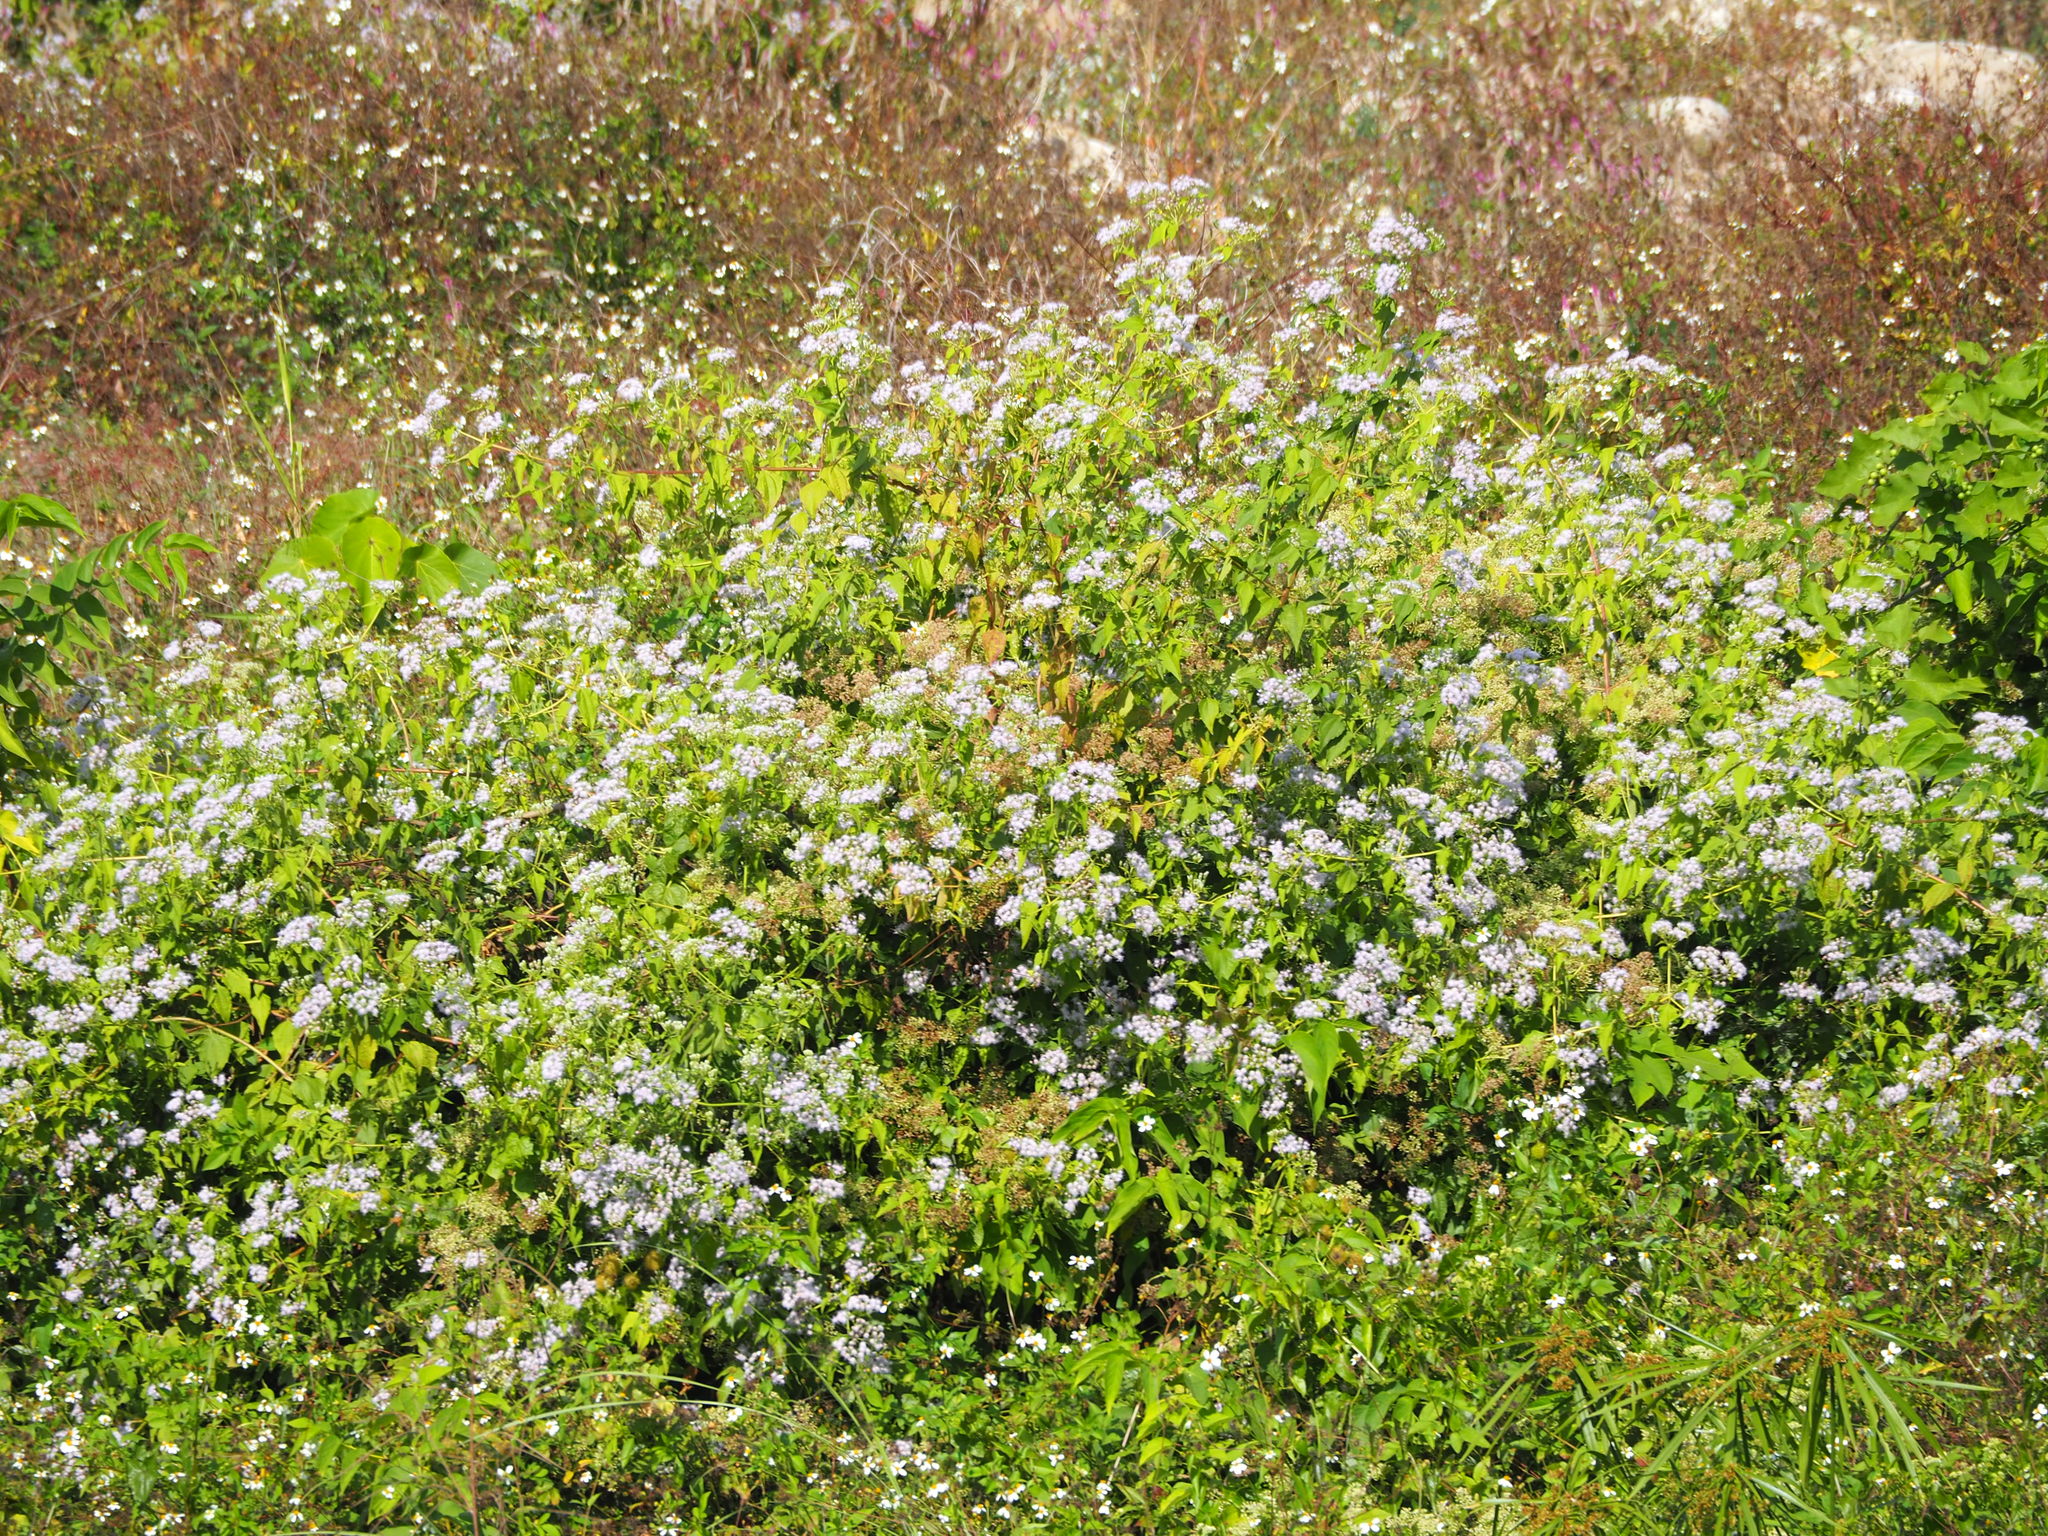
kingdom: Plantae
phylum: Tracheophyta
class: Magnoliopsida
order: Asterales
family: Asteraceae
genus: Chromolaena
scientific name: Chromolaena odorata
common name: Siamweed
